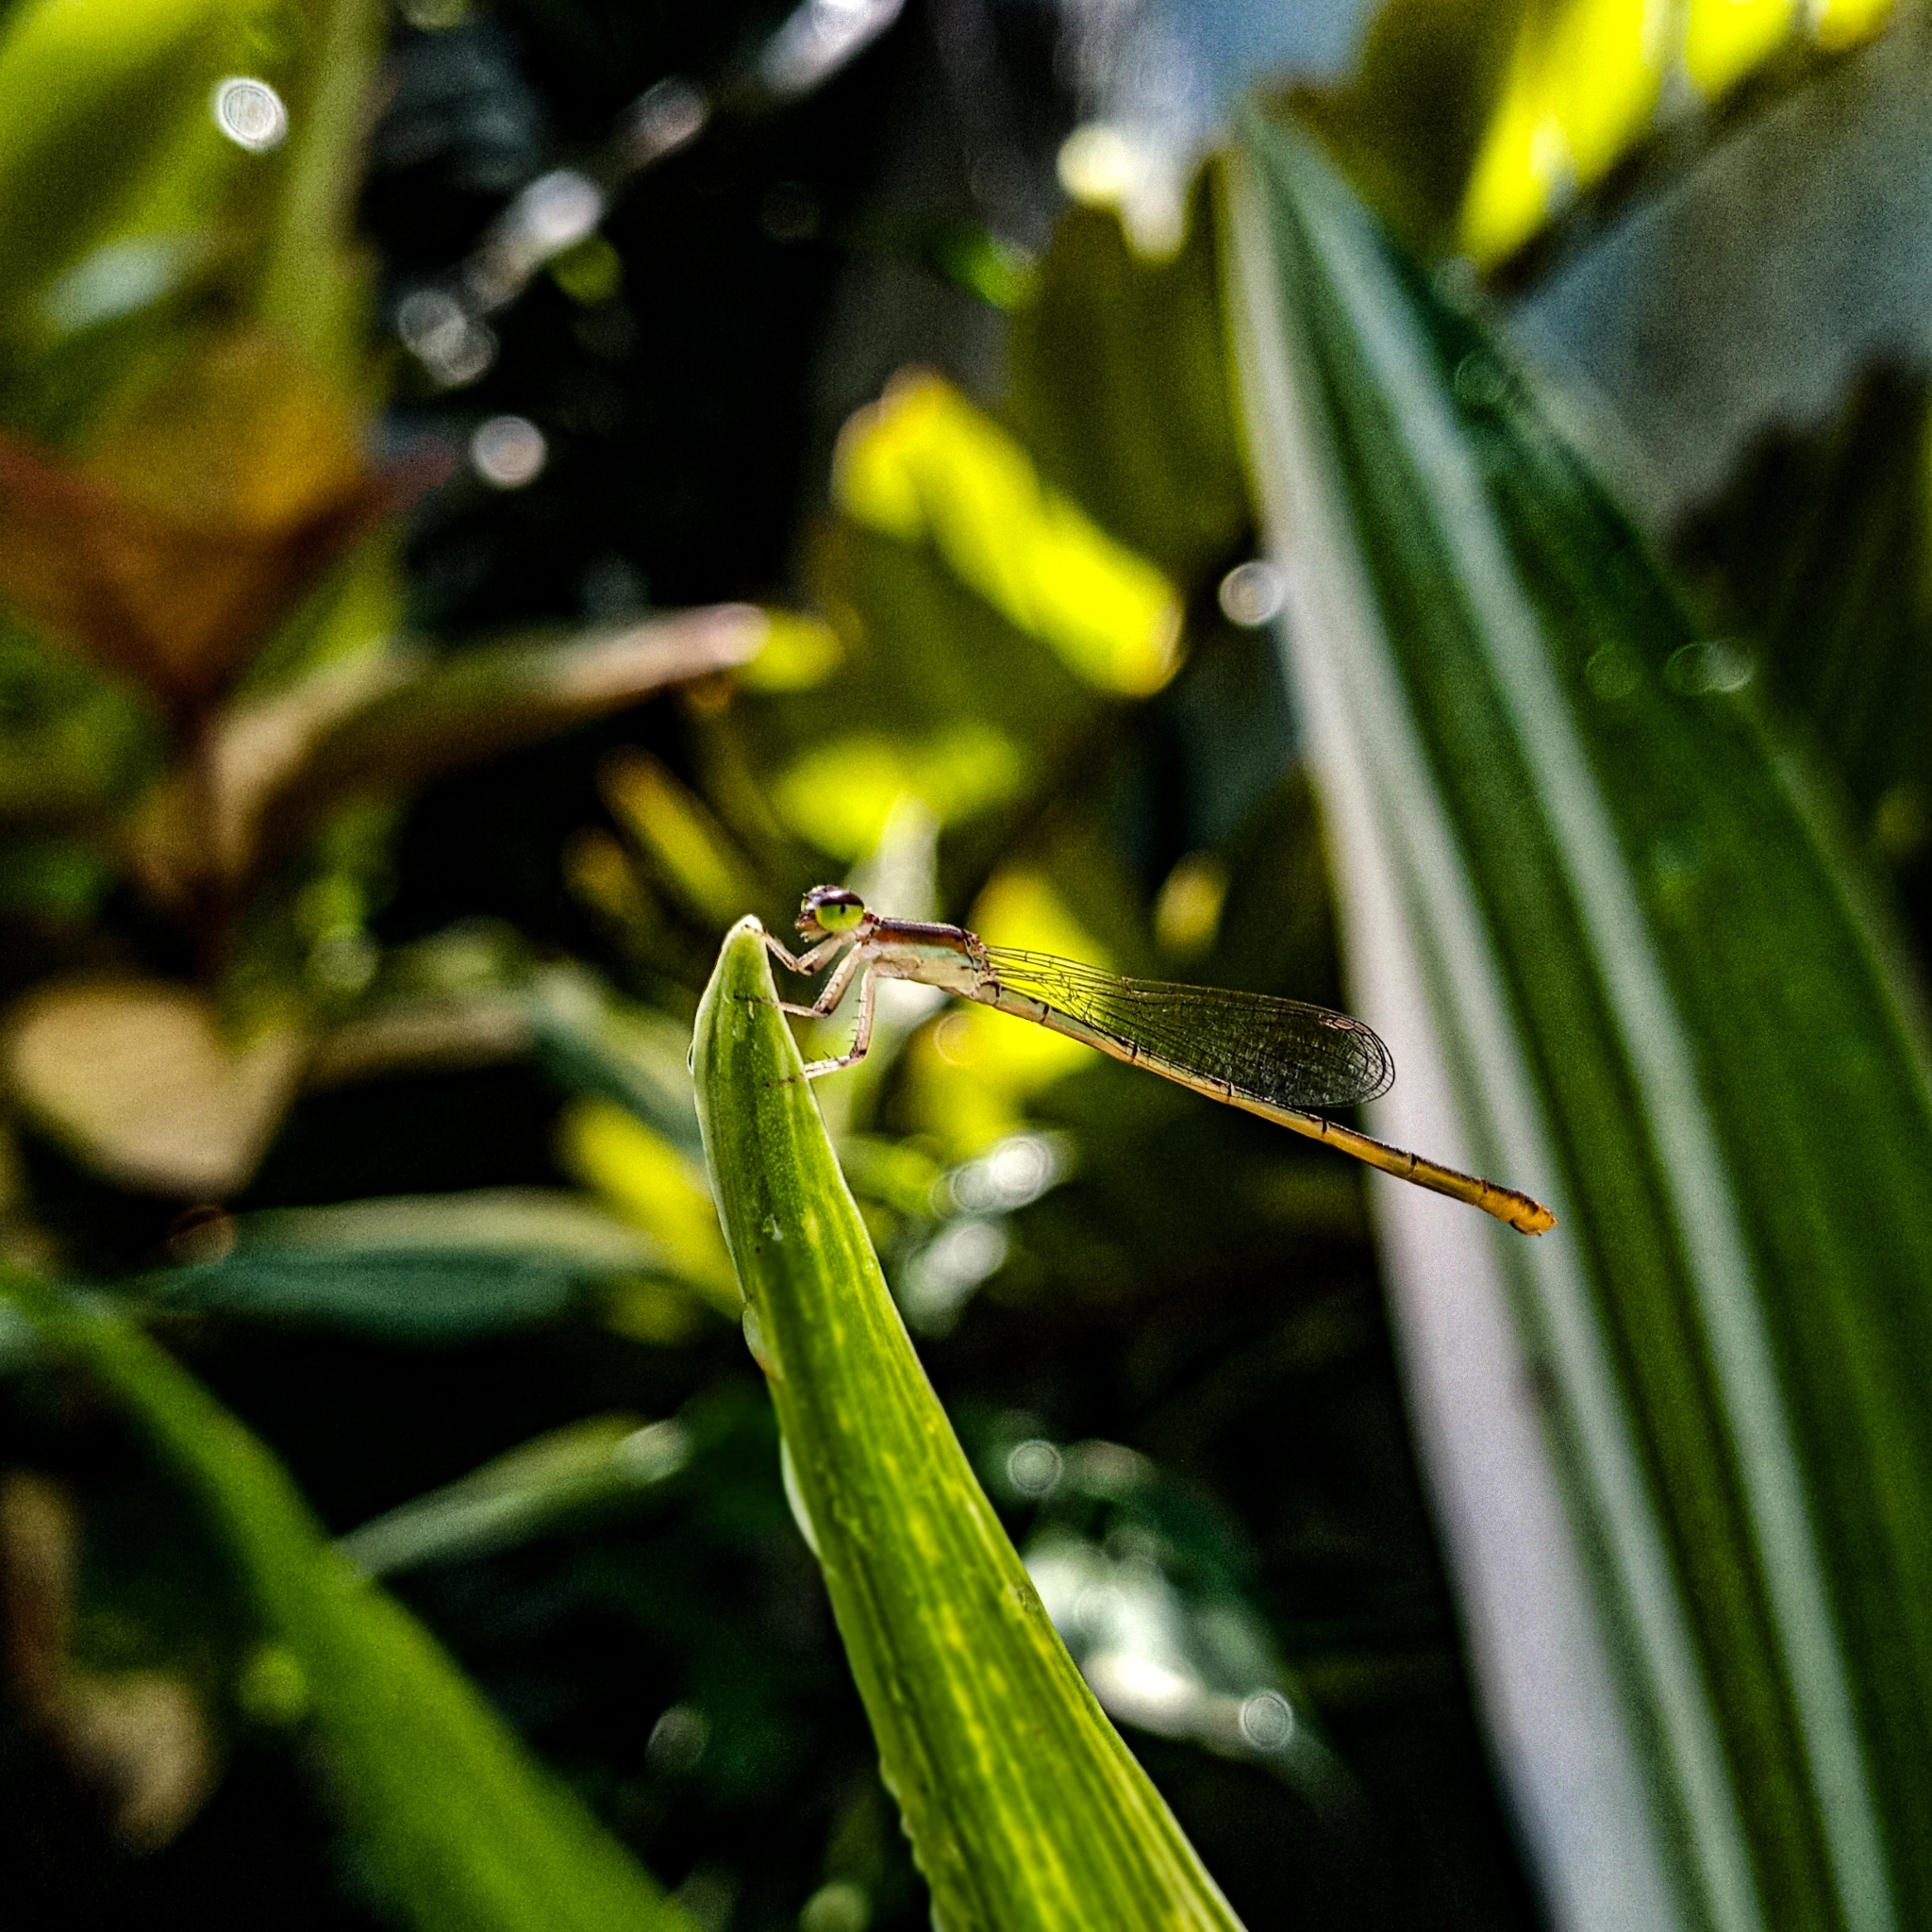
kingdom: Animalia
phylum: Arthropoda
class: Insecta
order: Odonata
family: Coenagrionidae
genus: Agriocnemis
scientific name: Agriocnemis femina
